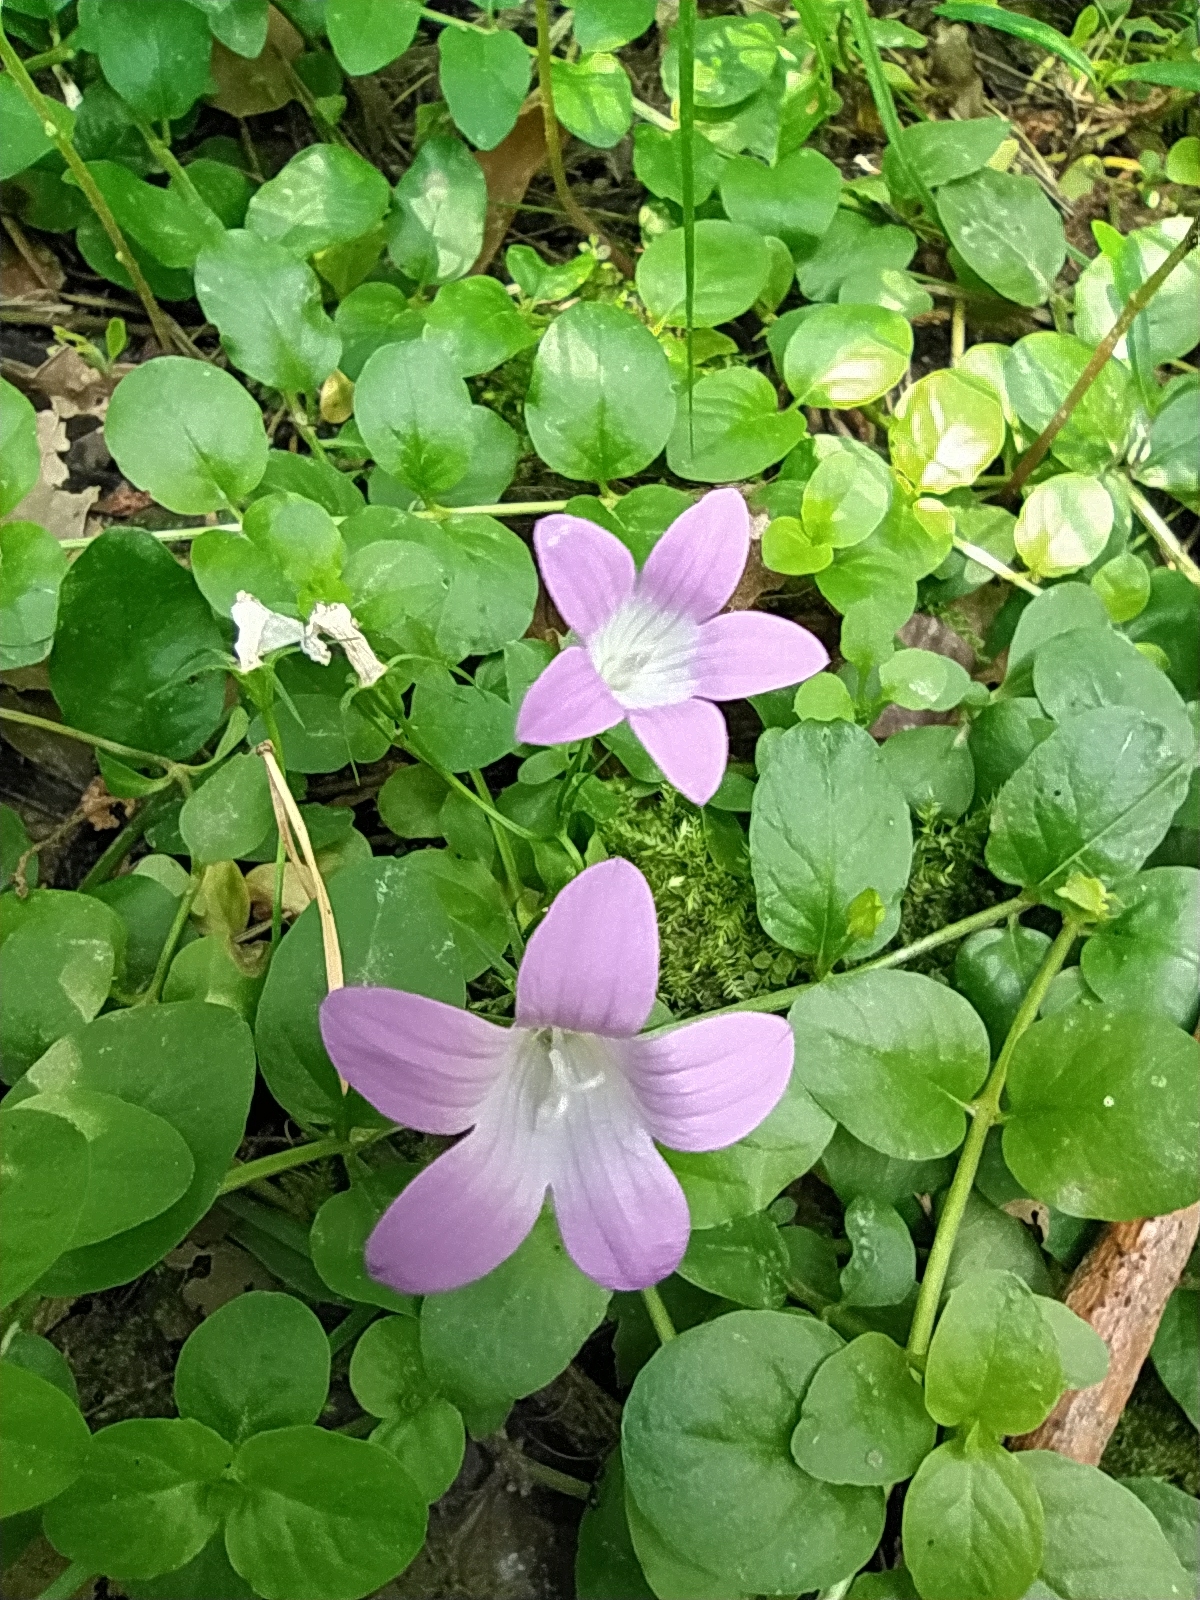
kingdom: Plantae
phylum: Tracheophyta
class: Magnoliopsida
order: Asterales
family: Campanulaceae
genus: Campanula
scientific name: Campanula patula
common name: Spreading bellflower
